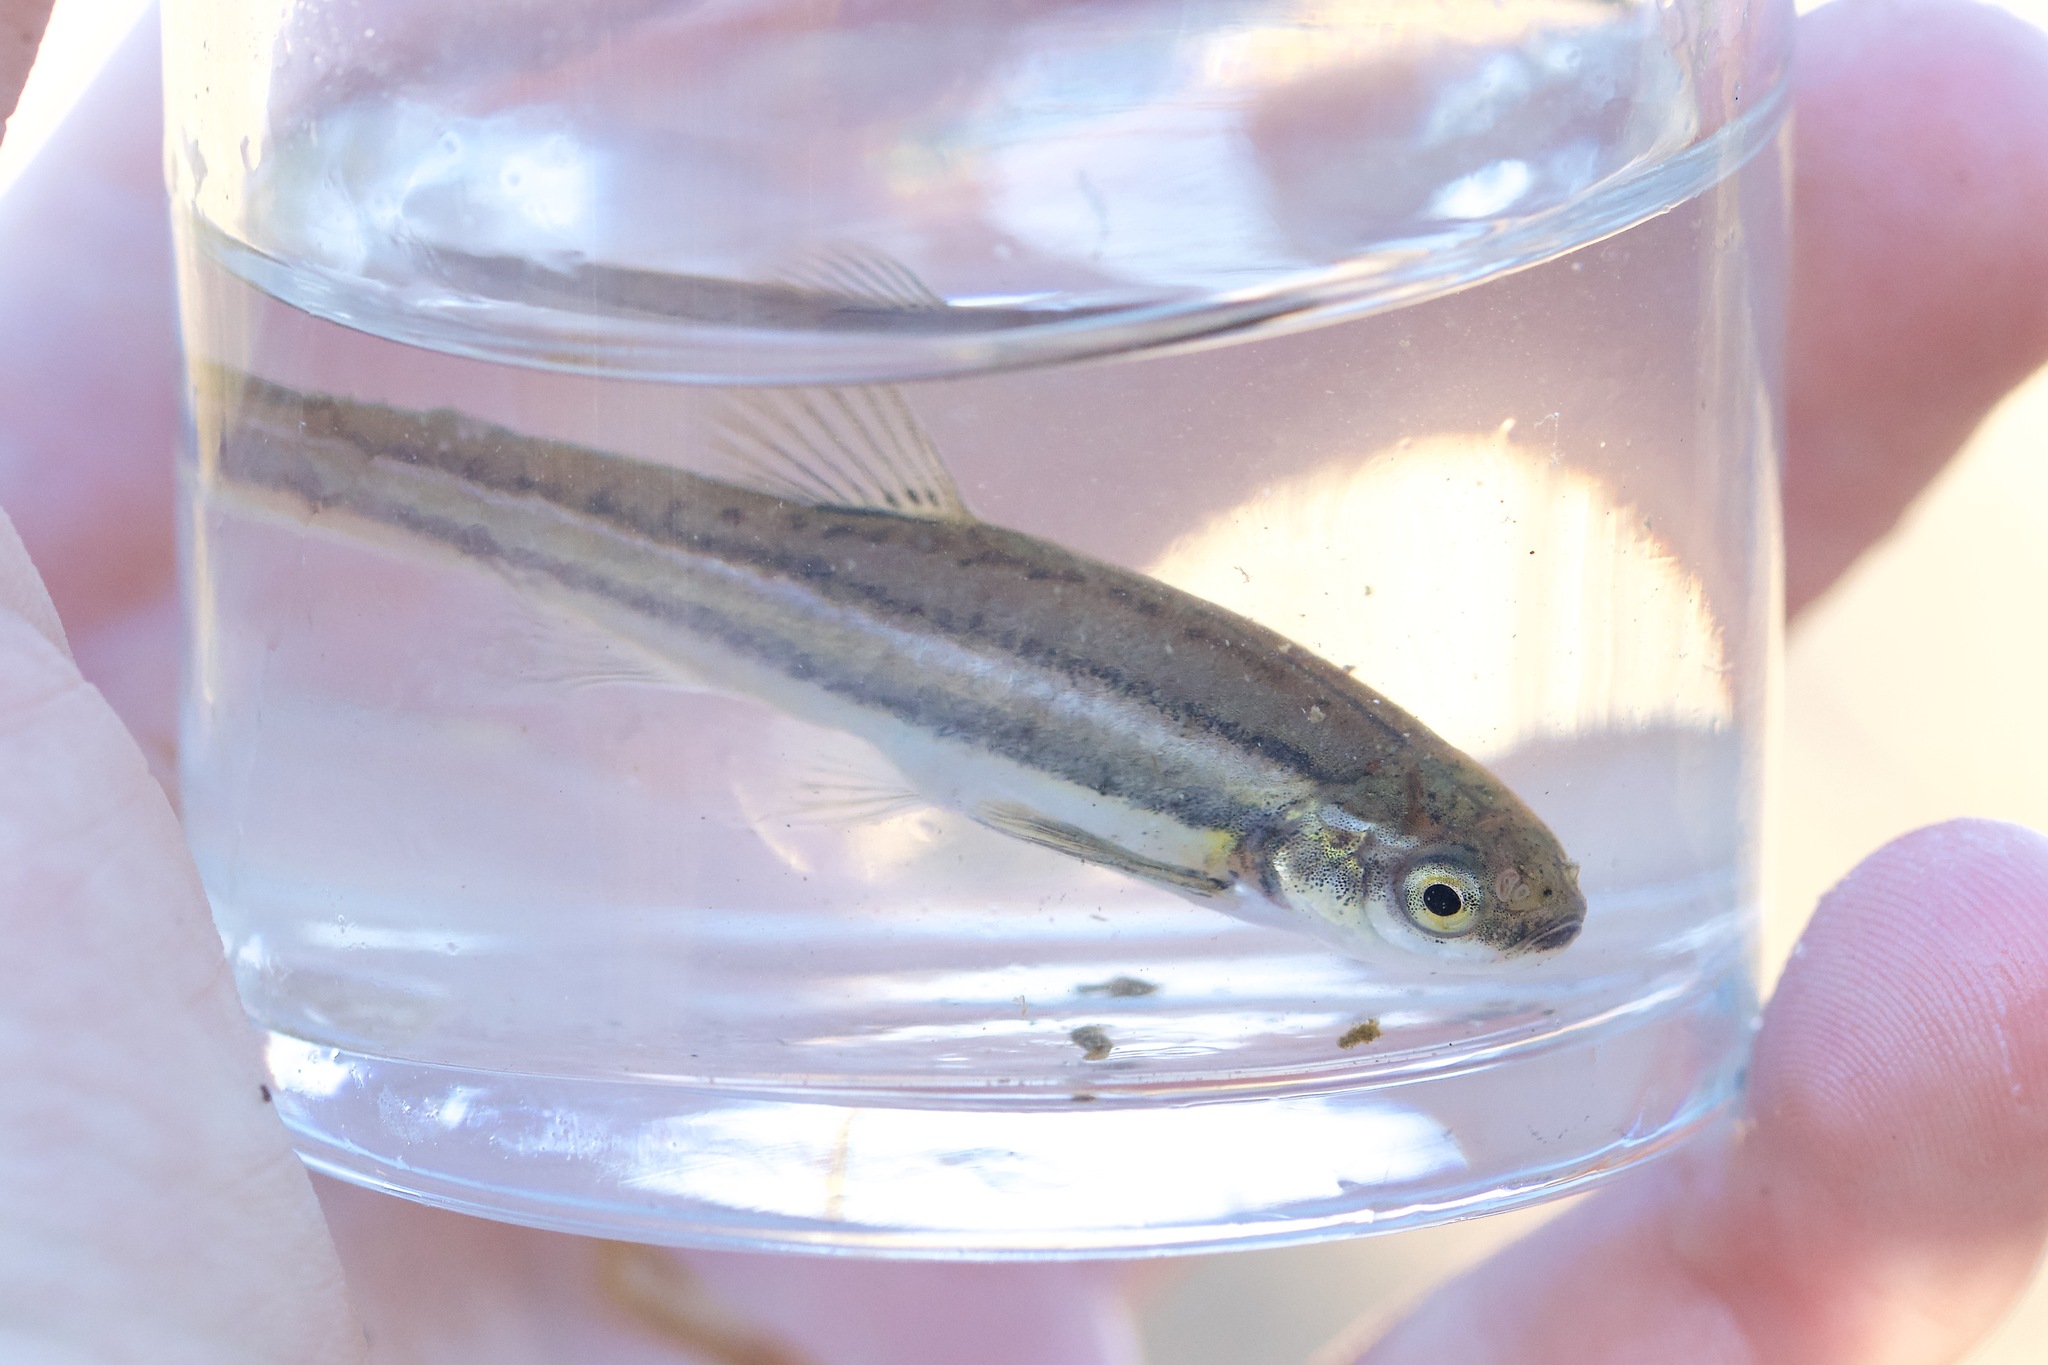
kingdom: Animalia
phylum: Chordata
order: Cypriniformes
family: Cyprinidae
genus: Chrosomus
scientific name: Chrosomus eos
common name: Northern redbelly dace
